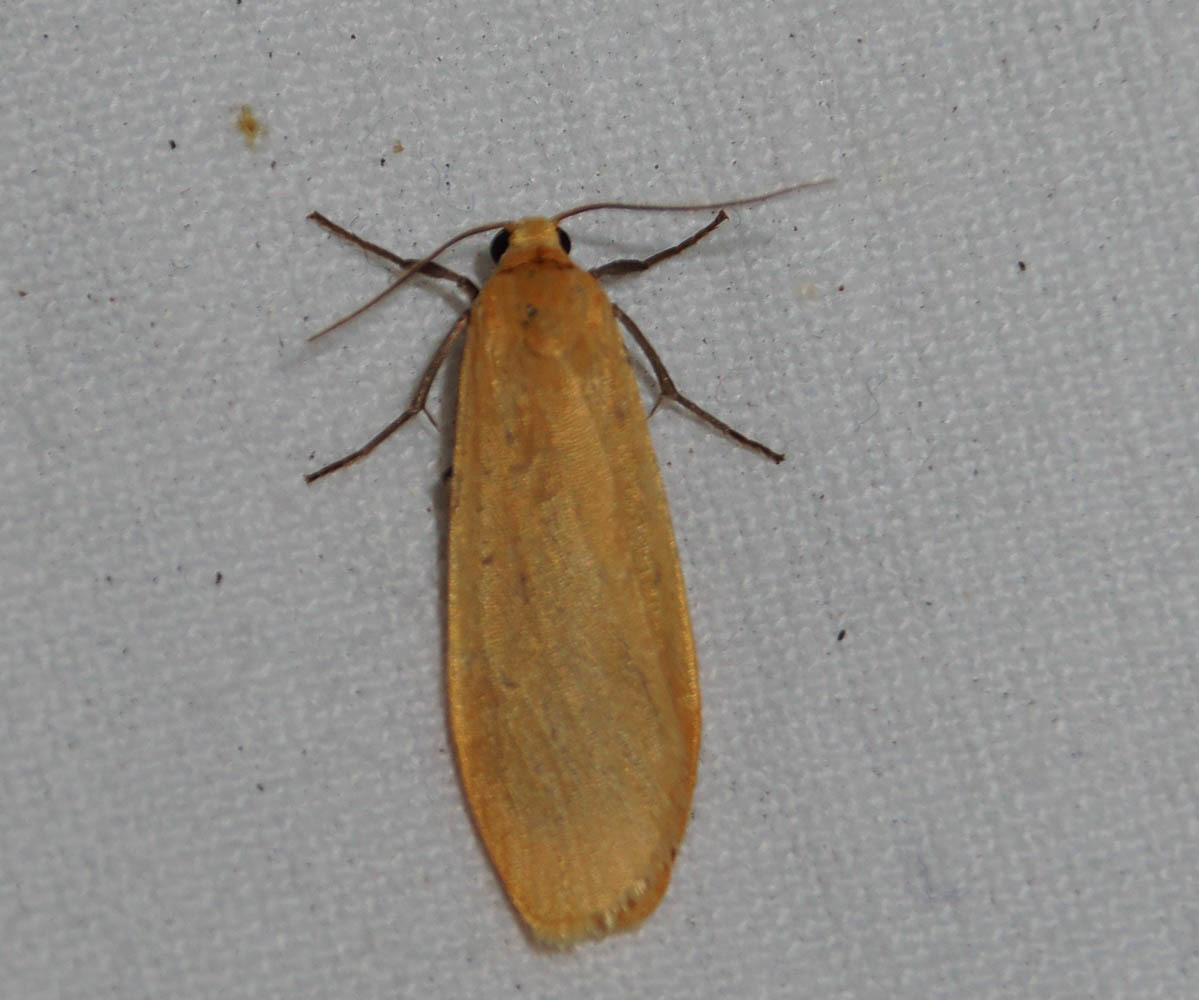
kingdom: Animalia
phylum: Arthropoda
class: Insecta
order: Lepidoptera
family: Erebidae
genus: Wittia
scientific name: Wittia sororcula
